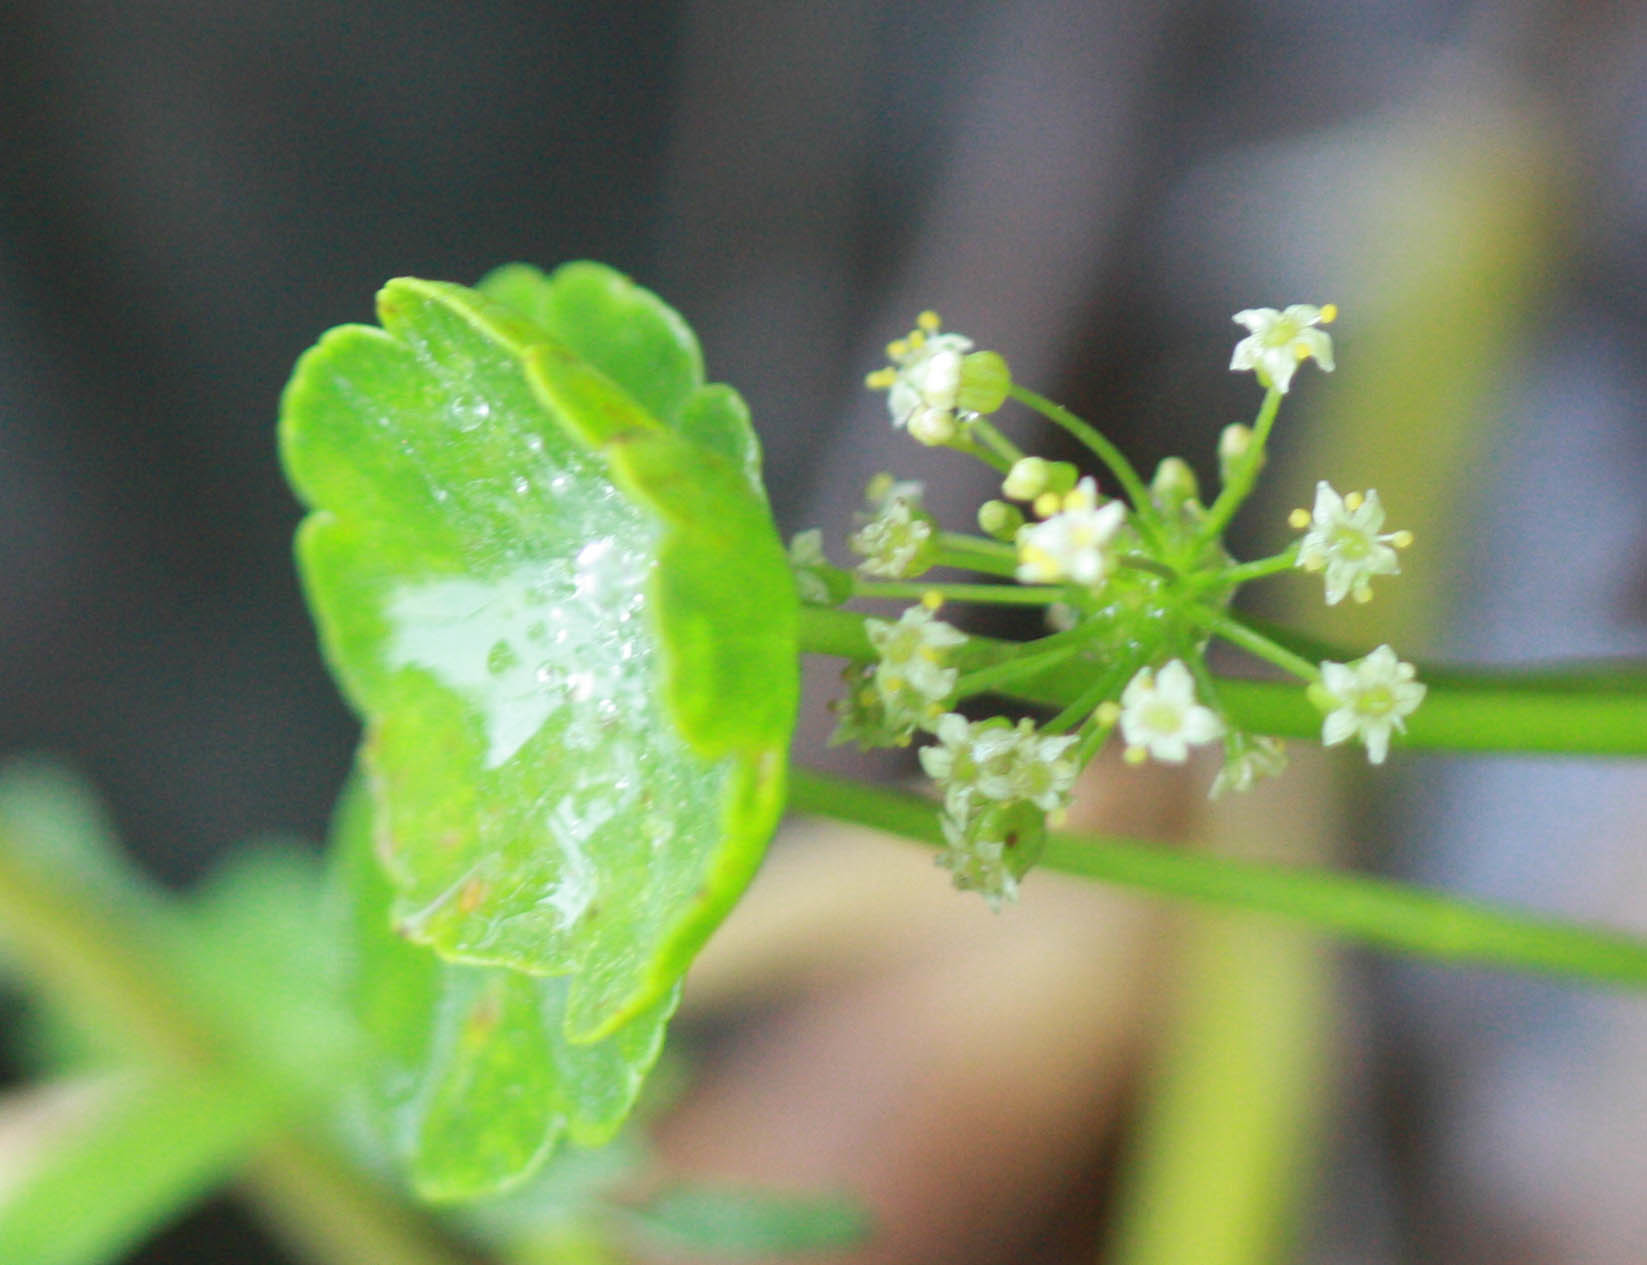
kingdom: Plantae
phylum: Tracheophyta
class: Magnoliopsida
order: Apiales
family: Araliaceae
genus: Hydrocotyle
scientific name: Hydrocotyle umbellata
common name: Water pennywort
